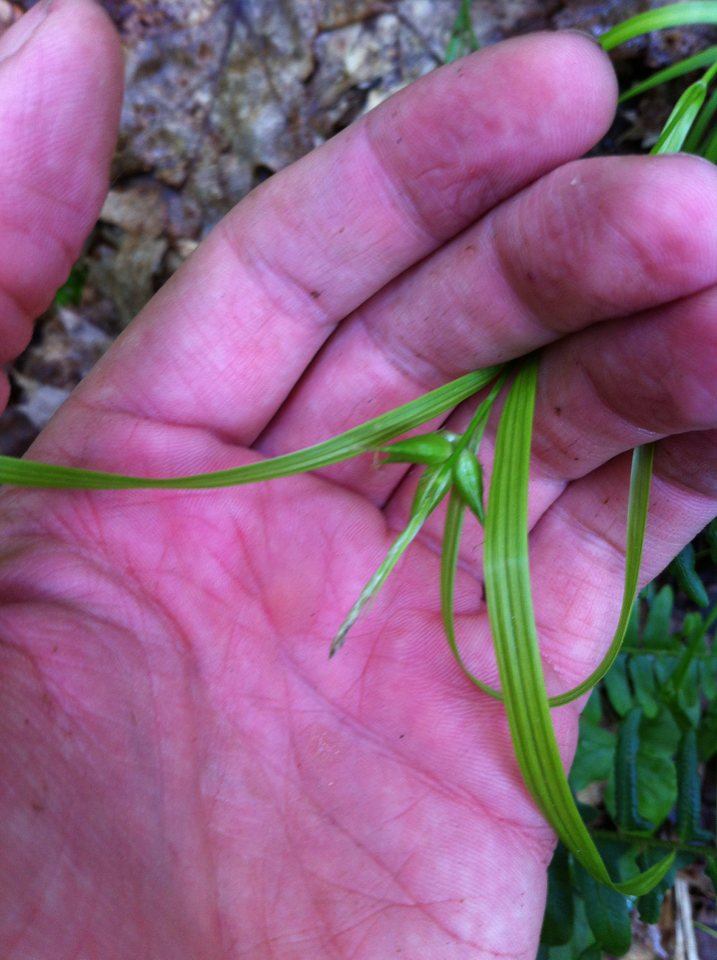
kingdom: Plantae
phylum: Tracheophyta
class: Liliopsida
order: Poales
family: Cyperaceae
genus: Carex
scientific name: Carex intumescens
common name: Greater bladder sedge
